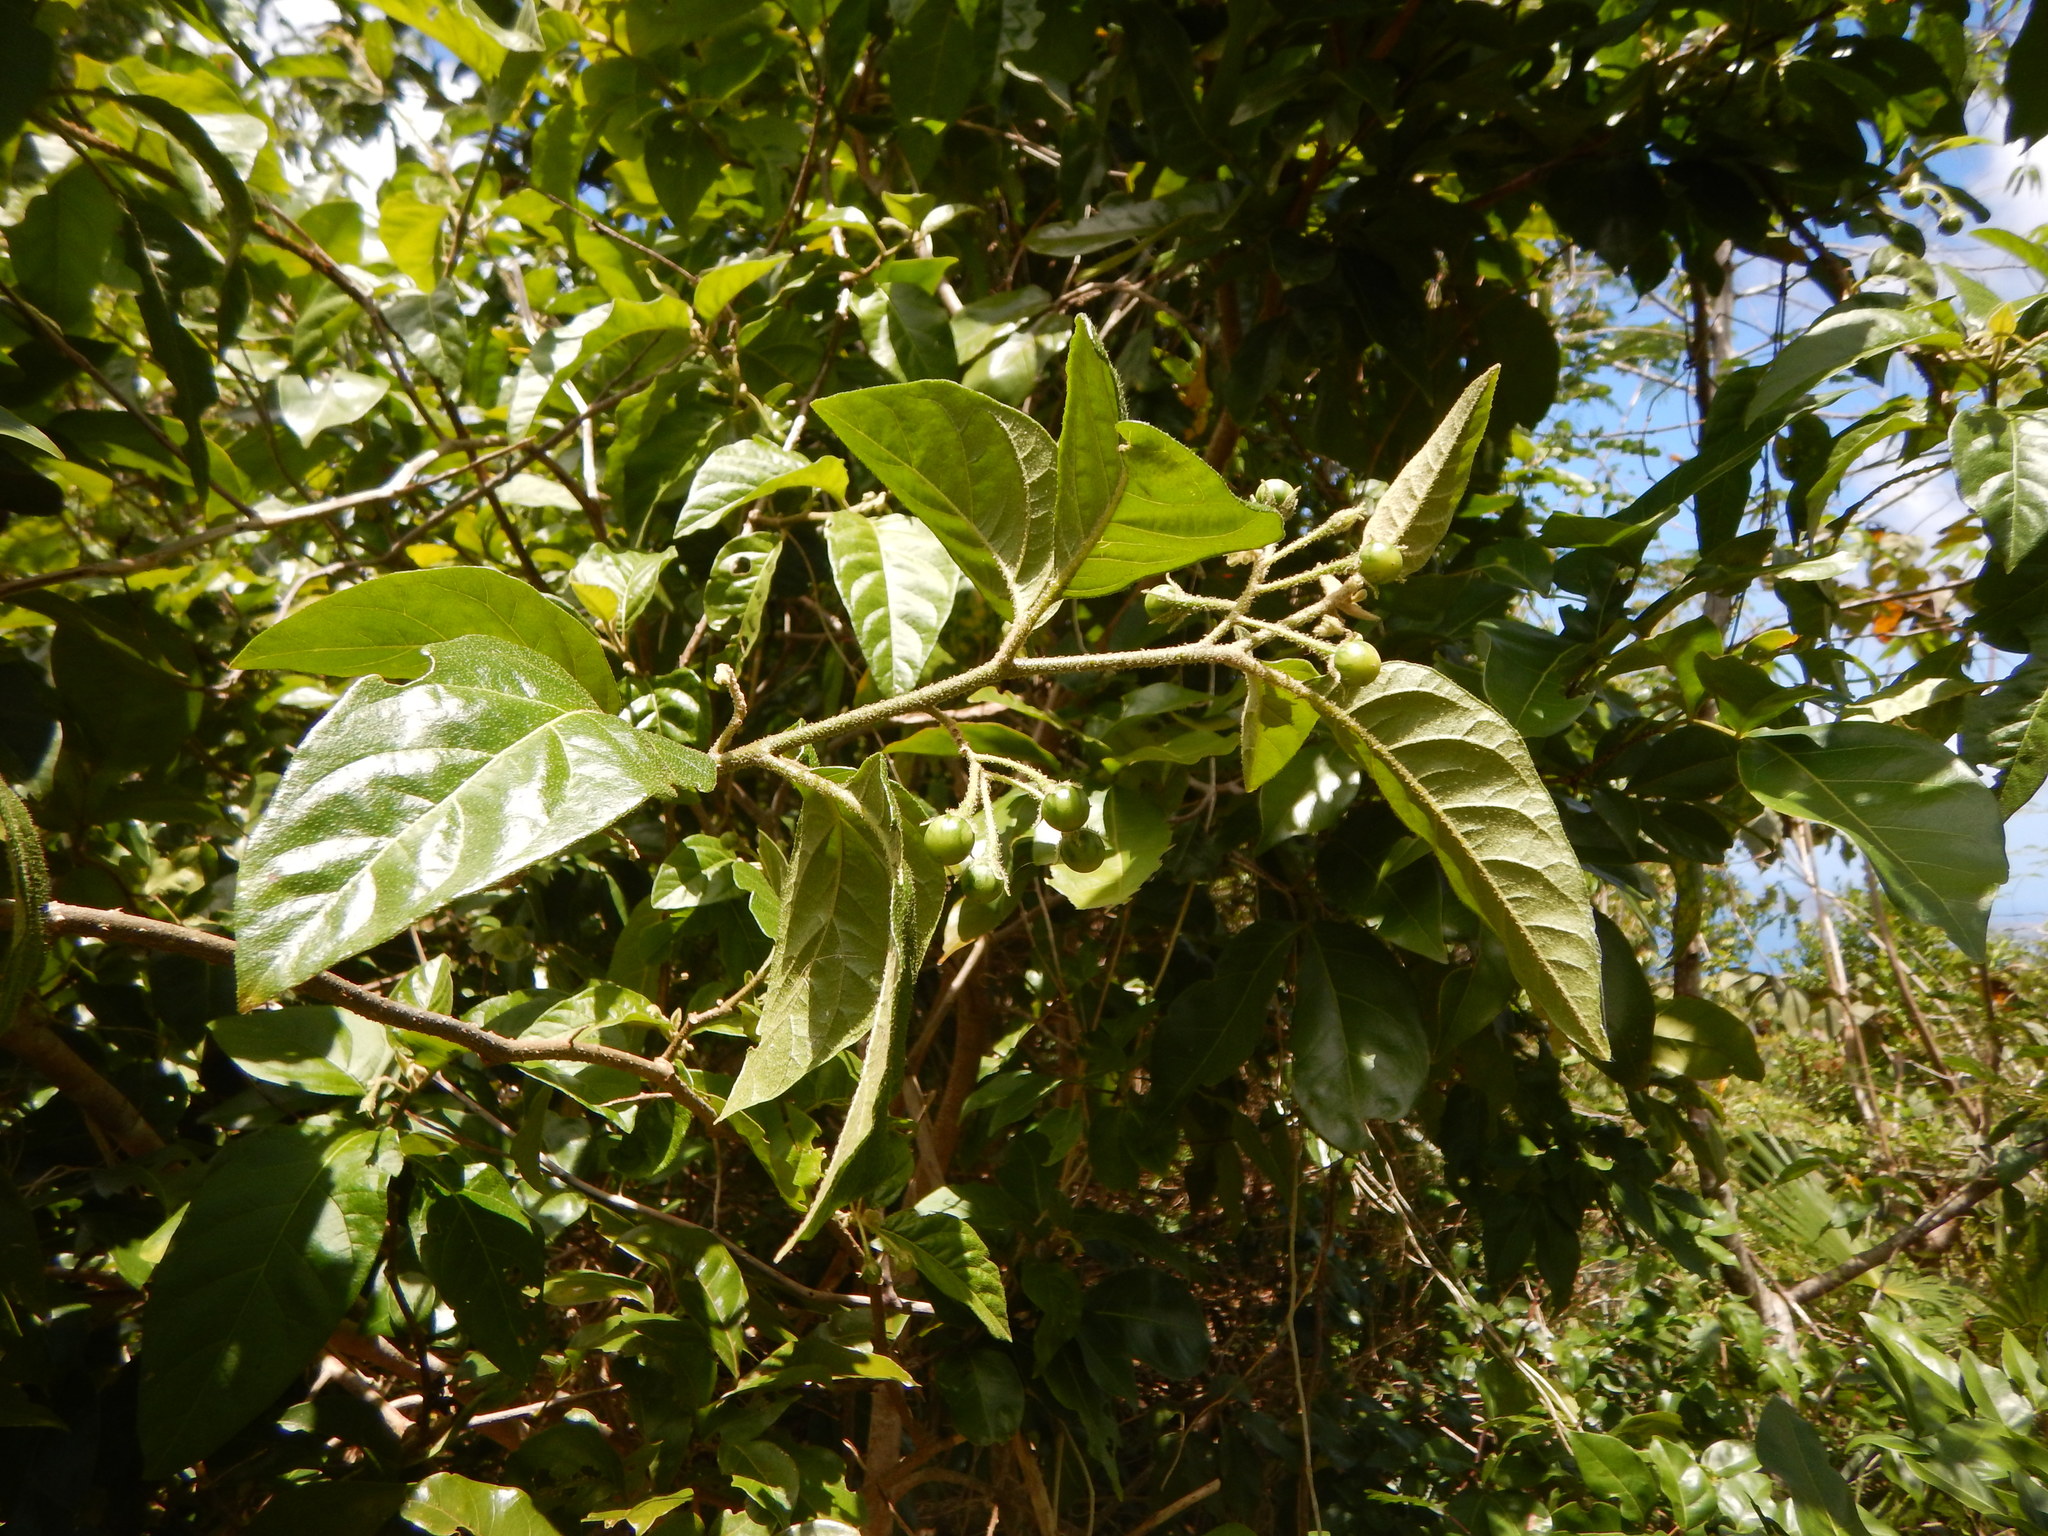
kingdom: Plantae
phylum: Tracheophyta
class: Magnoliopsida
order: Solanales
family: Solanaceae
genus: Solanum
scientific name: Solanum erianthum
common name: Tobacco-tree
